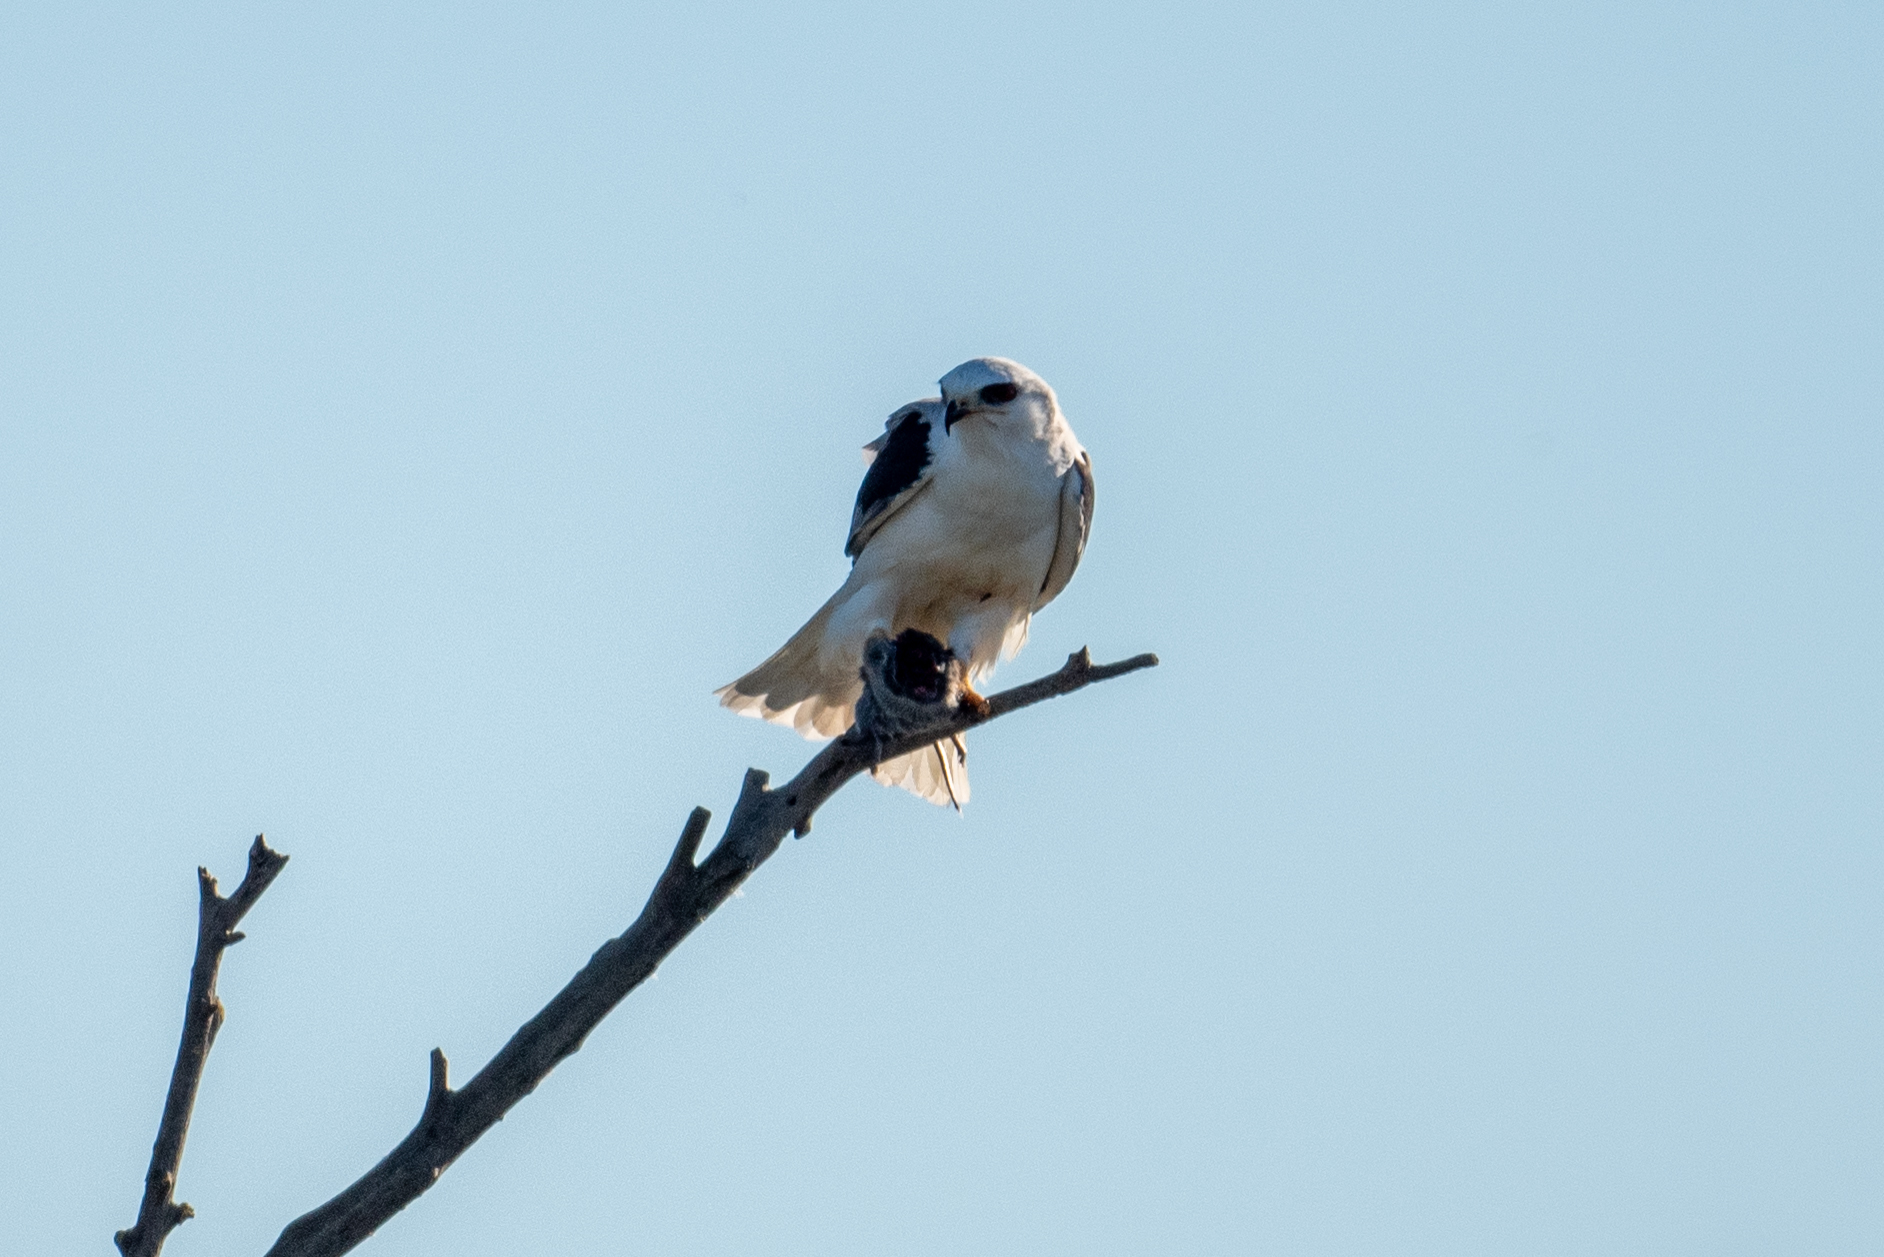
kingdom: Animalia
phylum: Chordata
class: Aves
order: Accipitriformes
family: Accipitridae
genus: Elanus
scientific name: Elanus leucurus
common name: White-tailed kite
